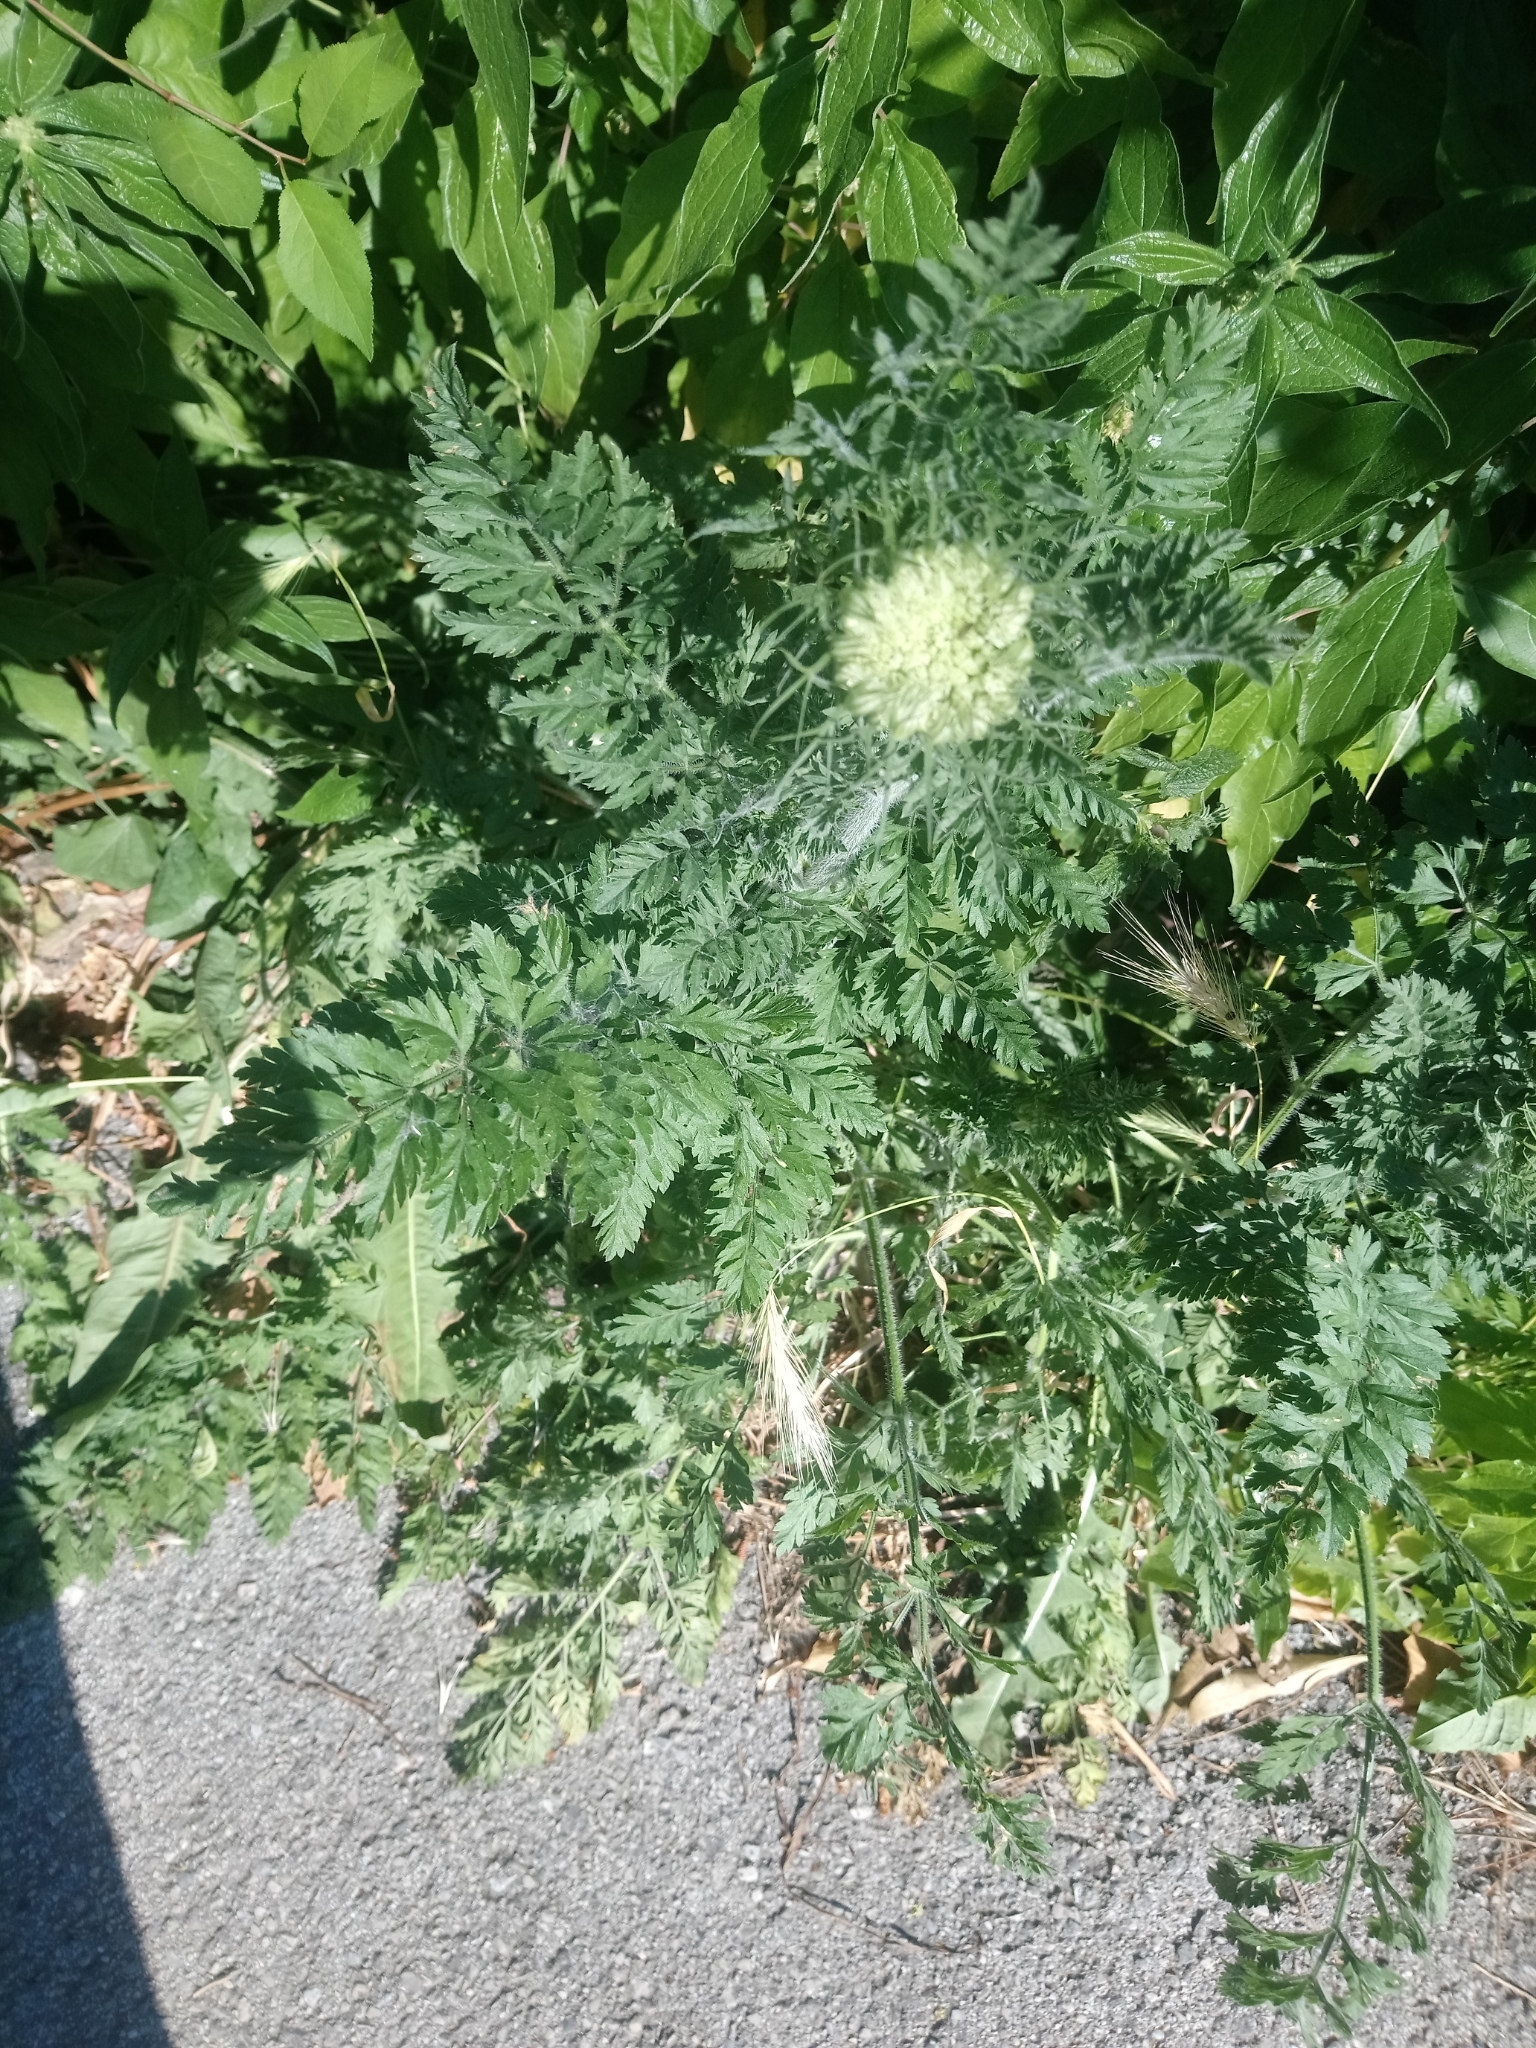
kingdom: Plantae
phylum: Tracheophyta
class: Magnoliopsida
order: Apiales
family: Apiaceae
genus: Daucus
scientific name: Daucus carota
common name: Wild carrot
